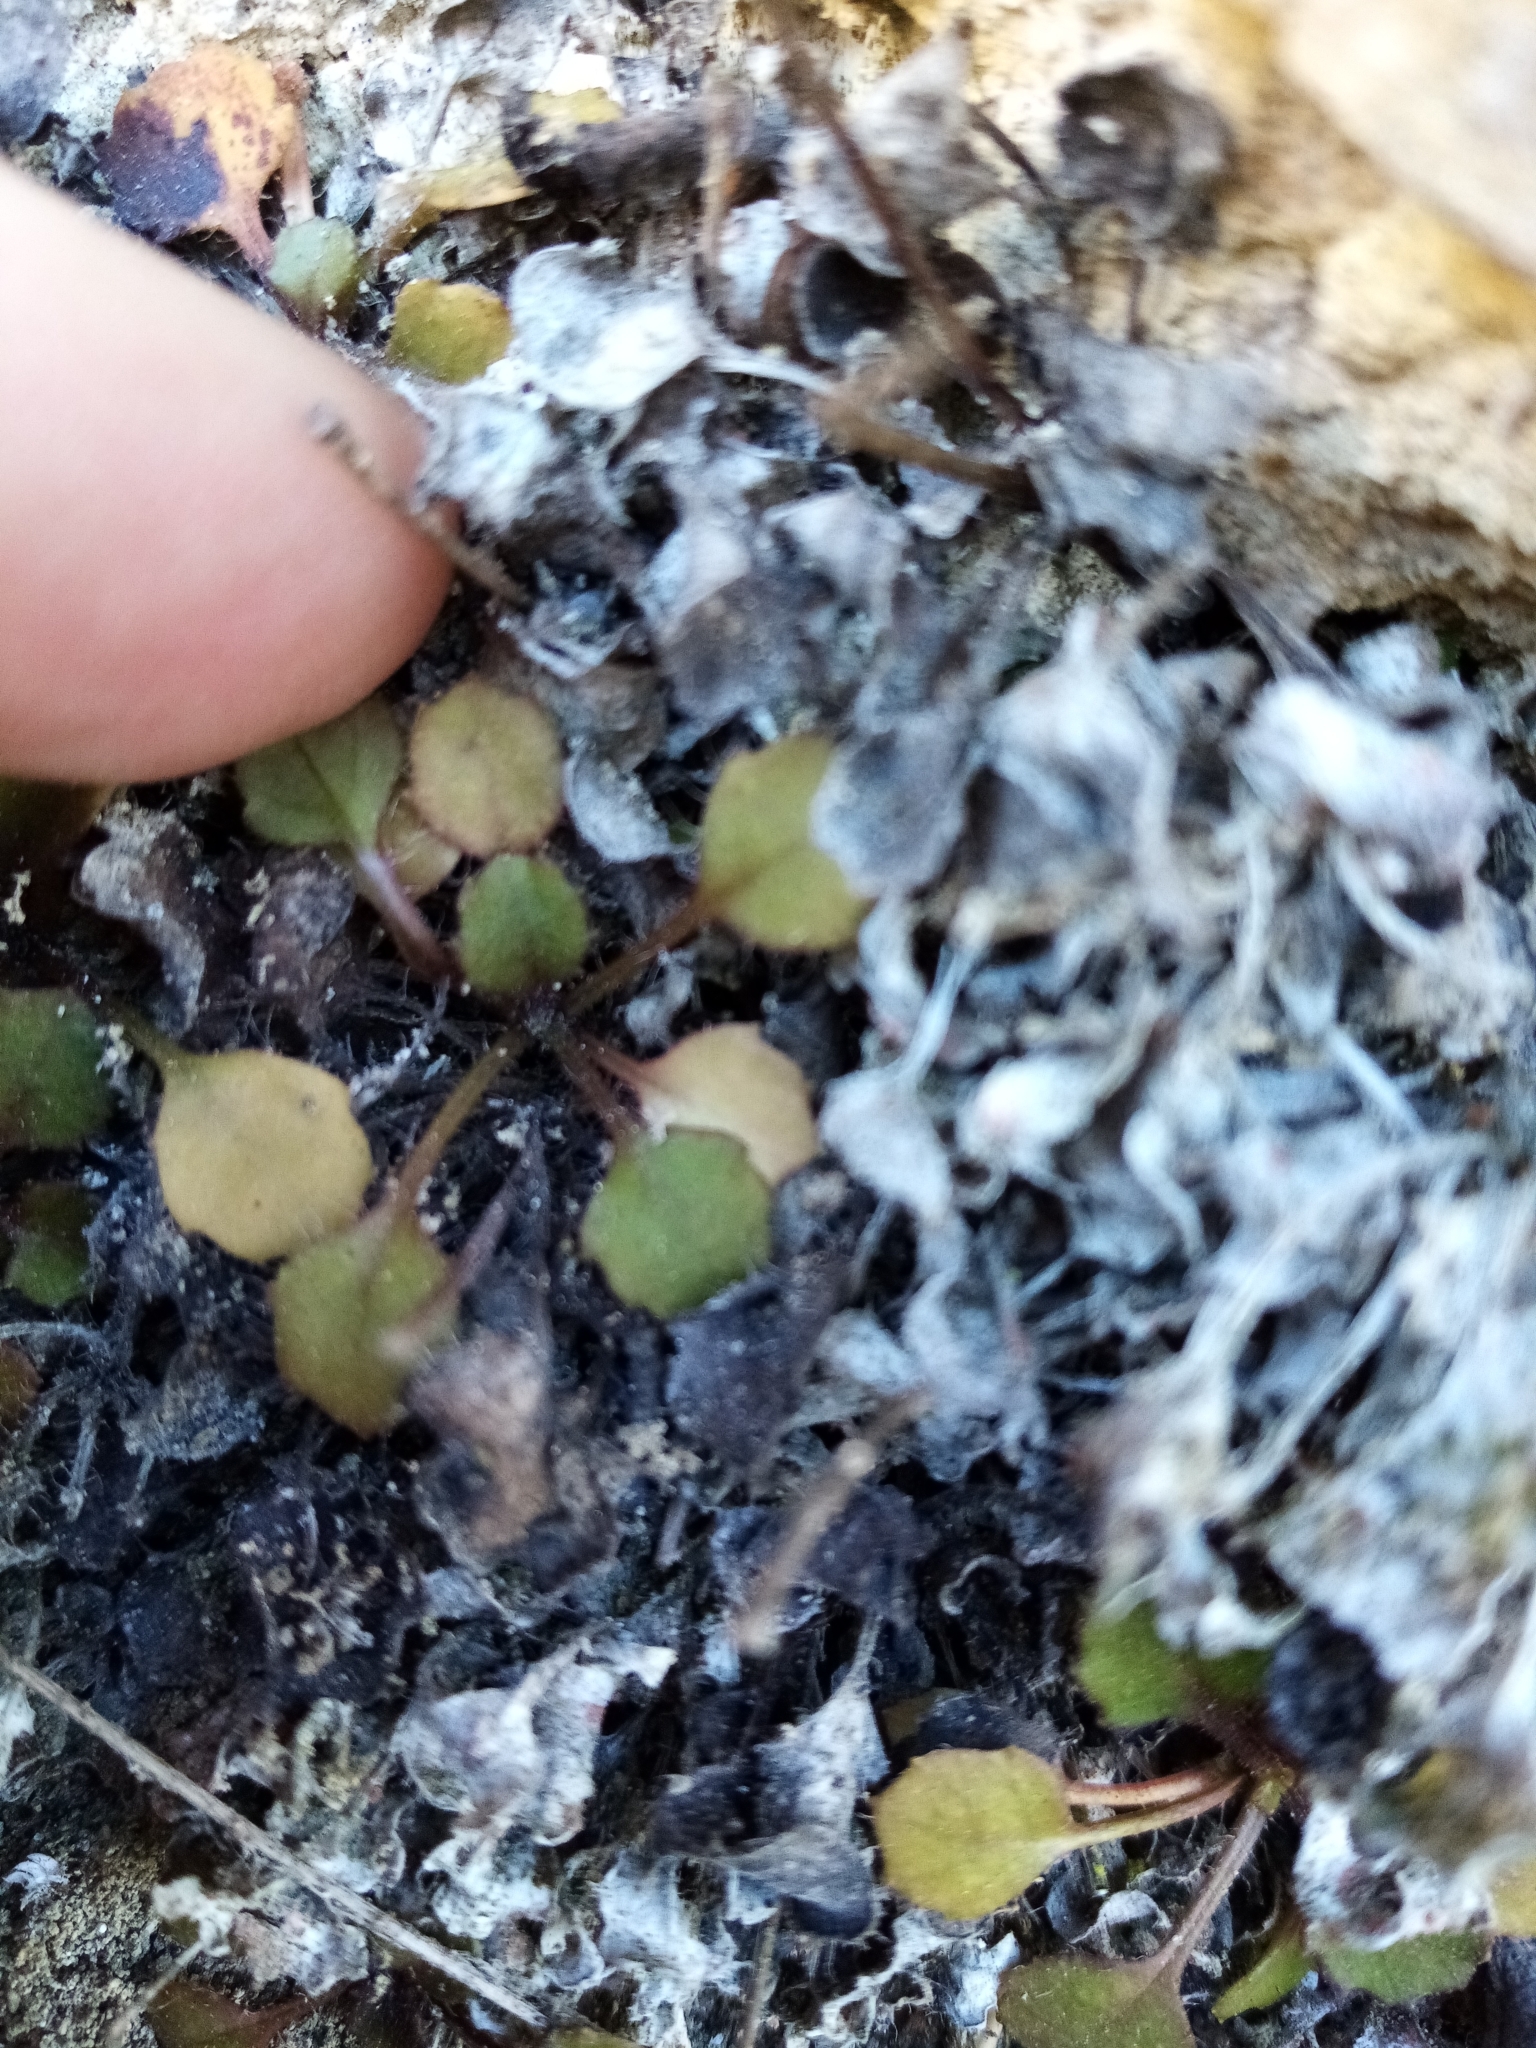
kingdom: Plantae
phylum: Tracheophyta
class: Magnoliopsida
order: Asterales
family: Asteraceae
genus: Lagenophora
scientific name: Lagenophora pumila
